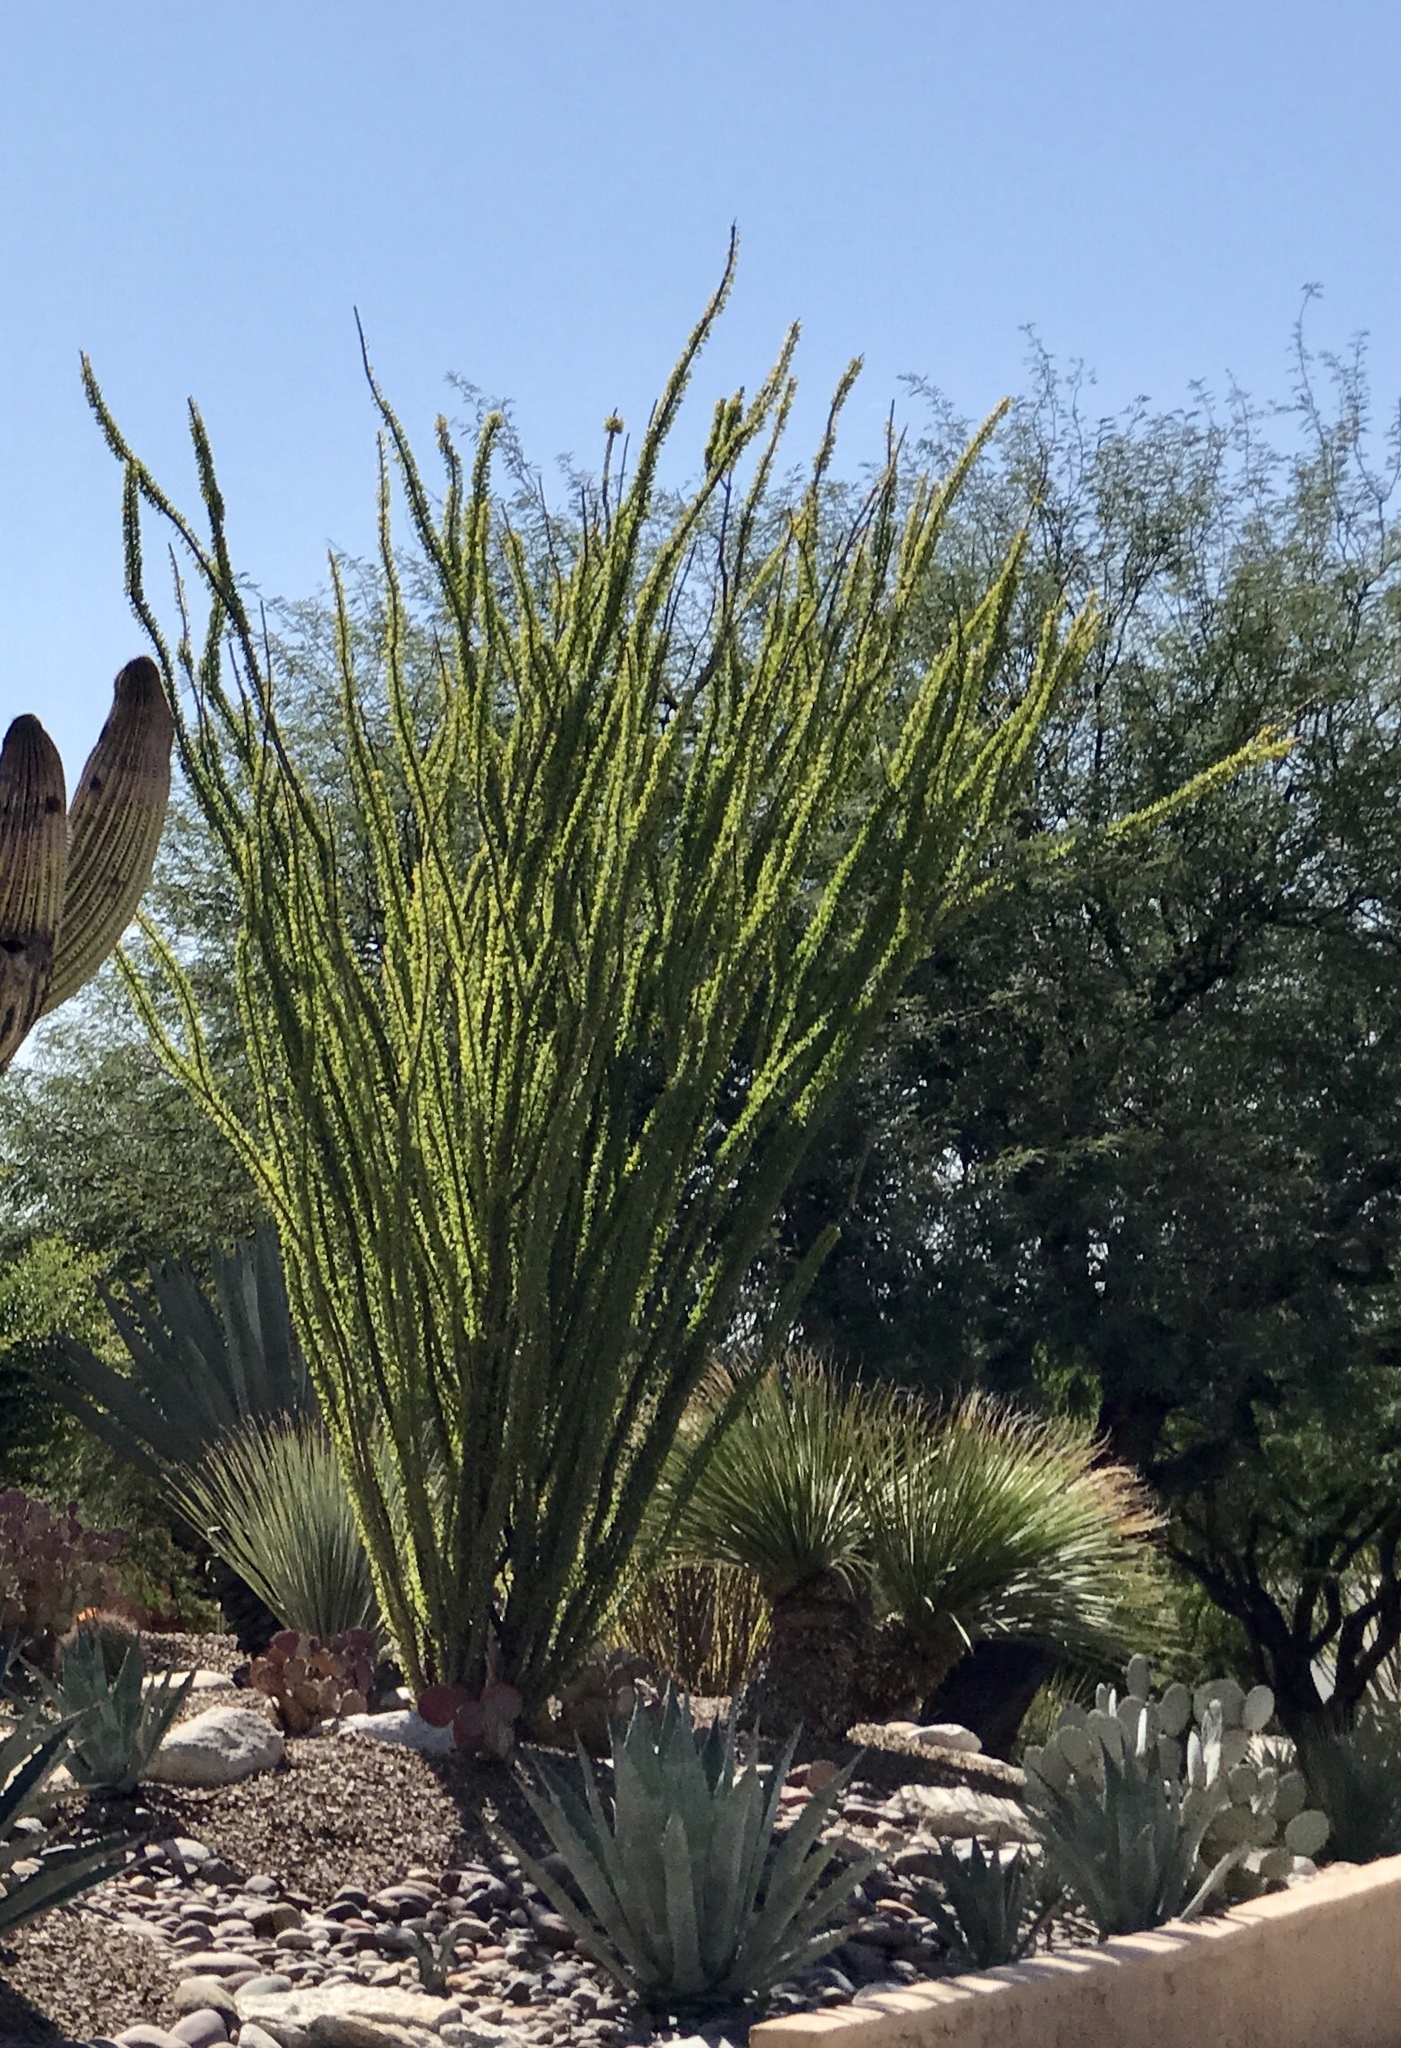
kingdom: Plantae
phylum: Tracheophyta
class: Magnoliopsida
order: Ericales
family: Fouquieriaceae
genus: Fouquieria
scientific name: Fouquieria splendens
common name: Vine-cactus
